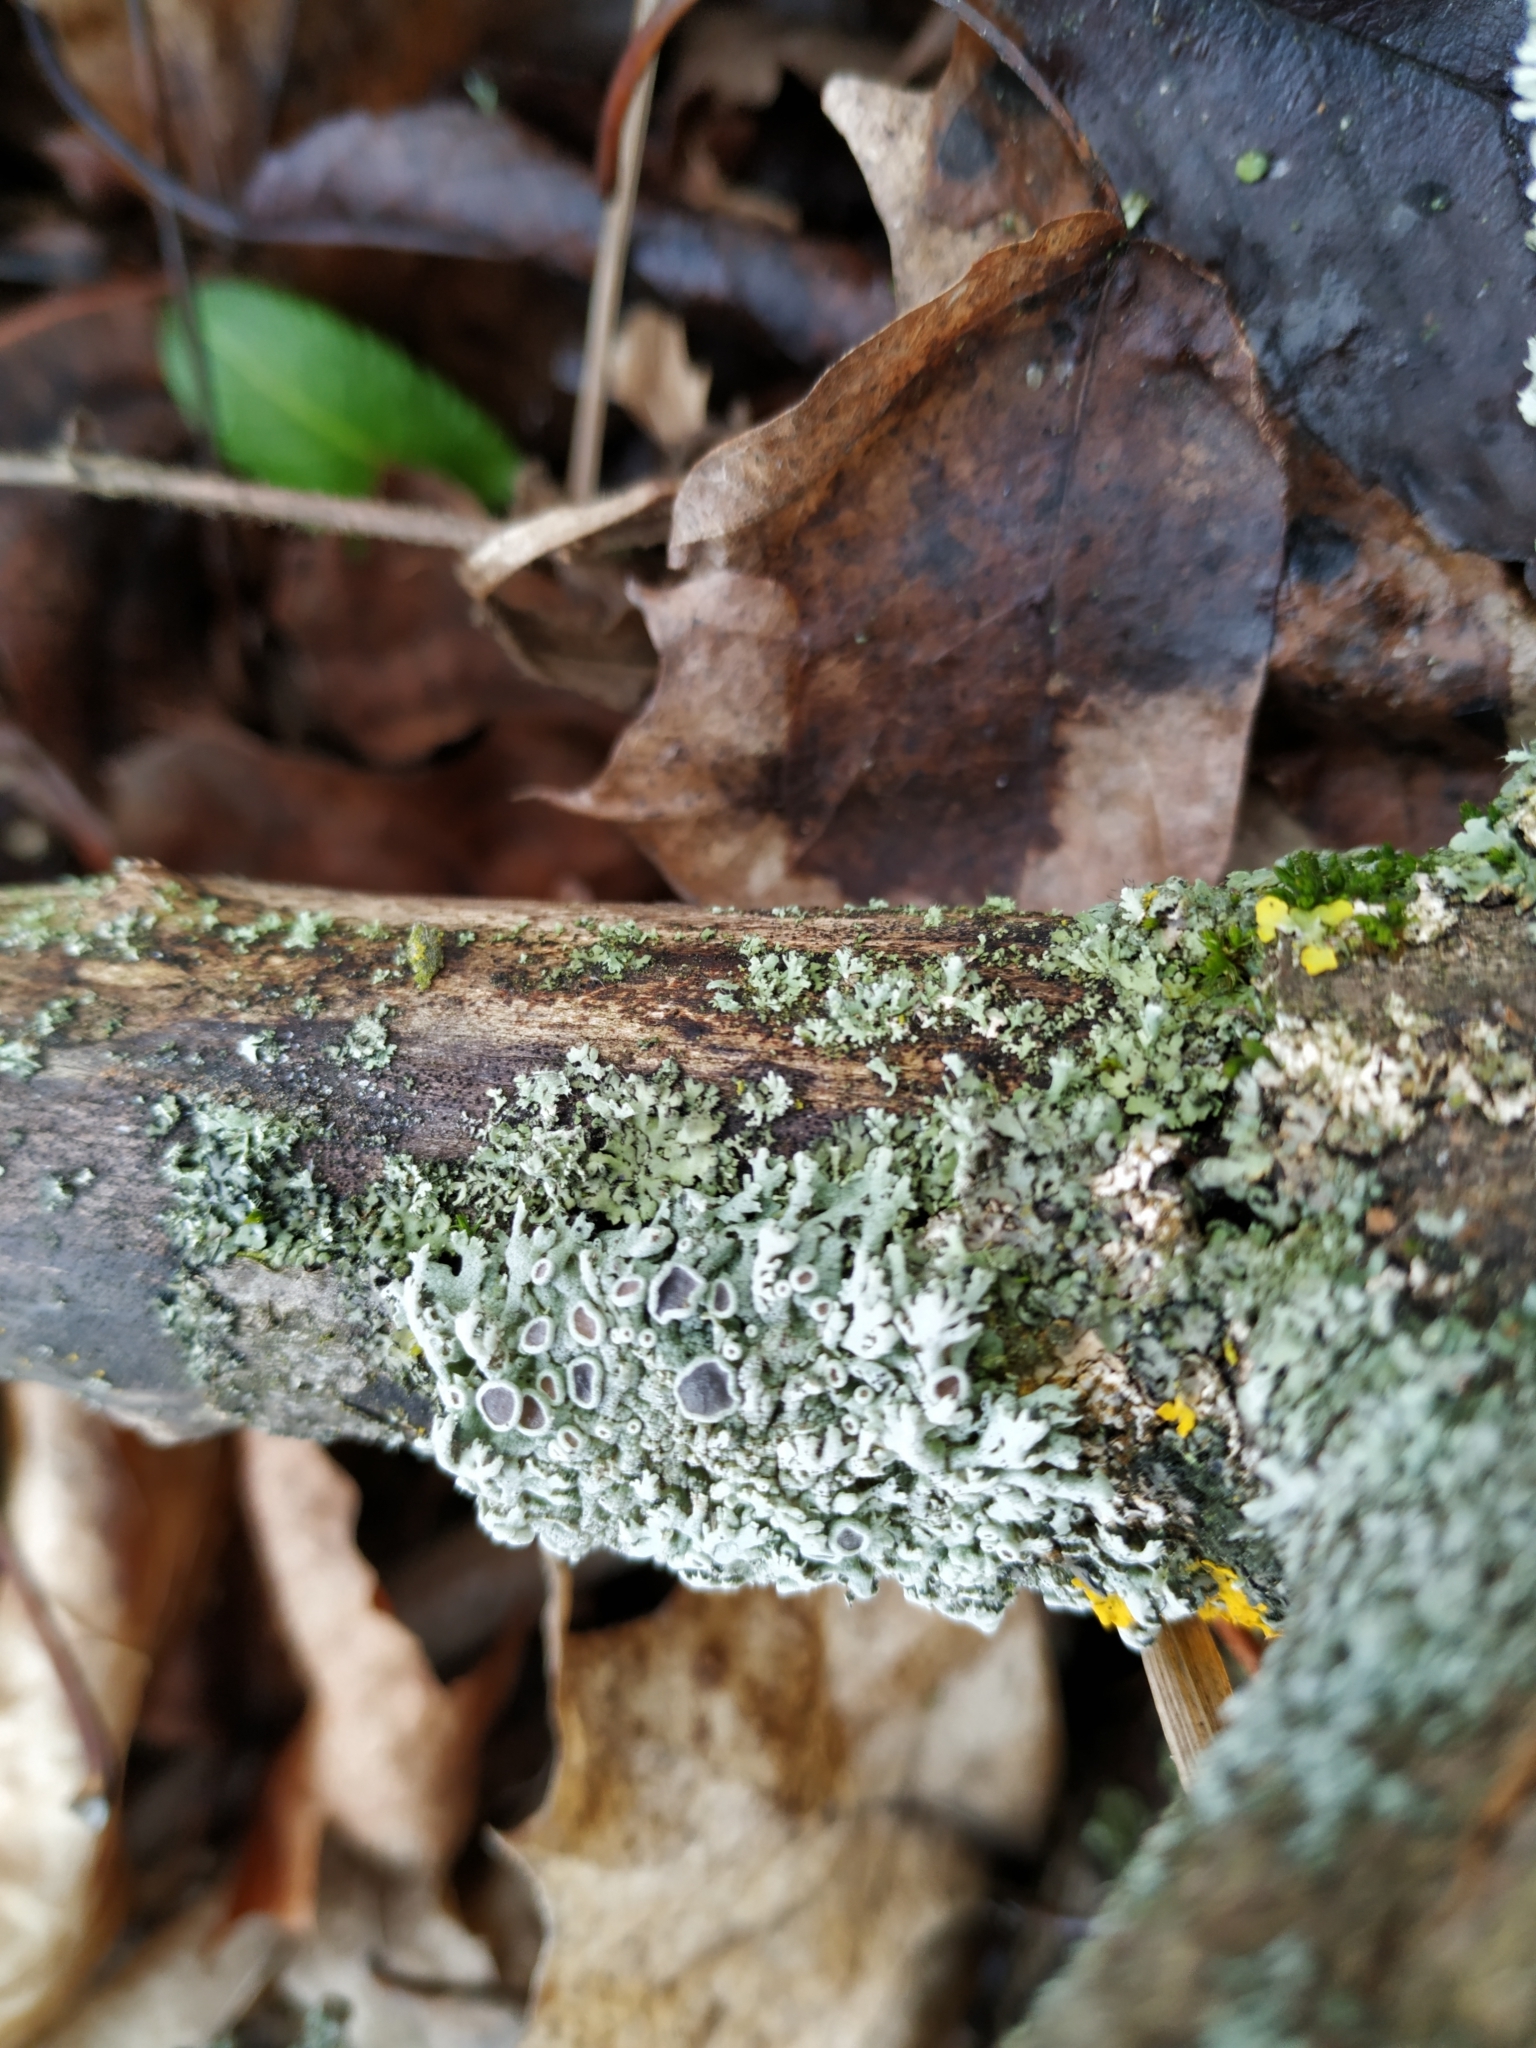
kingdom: Fungi
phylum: Ascomycota
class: Lecanoromycetes
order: Caliciales
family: Physciaceae
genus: Physcia
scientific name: Physcia stellaris
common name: Star rosette lichen
